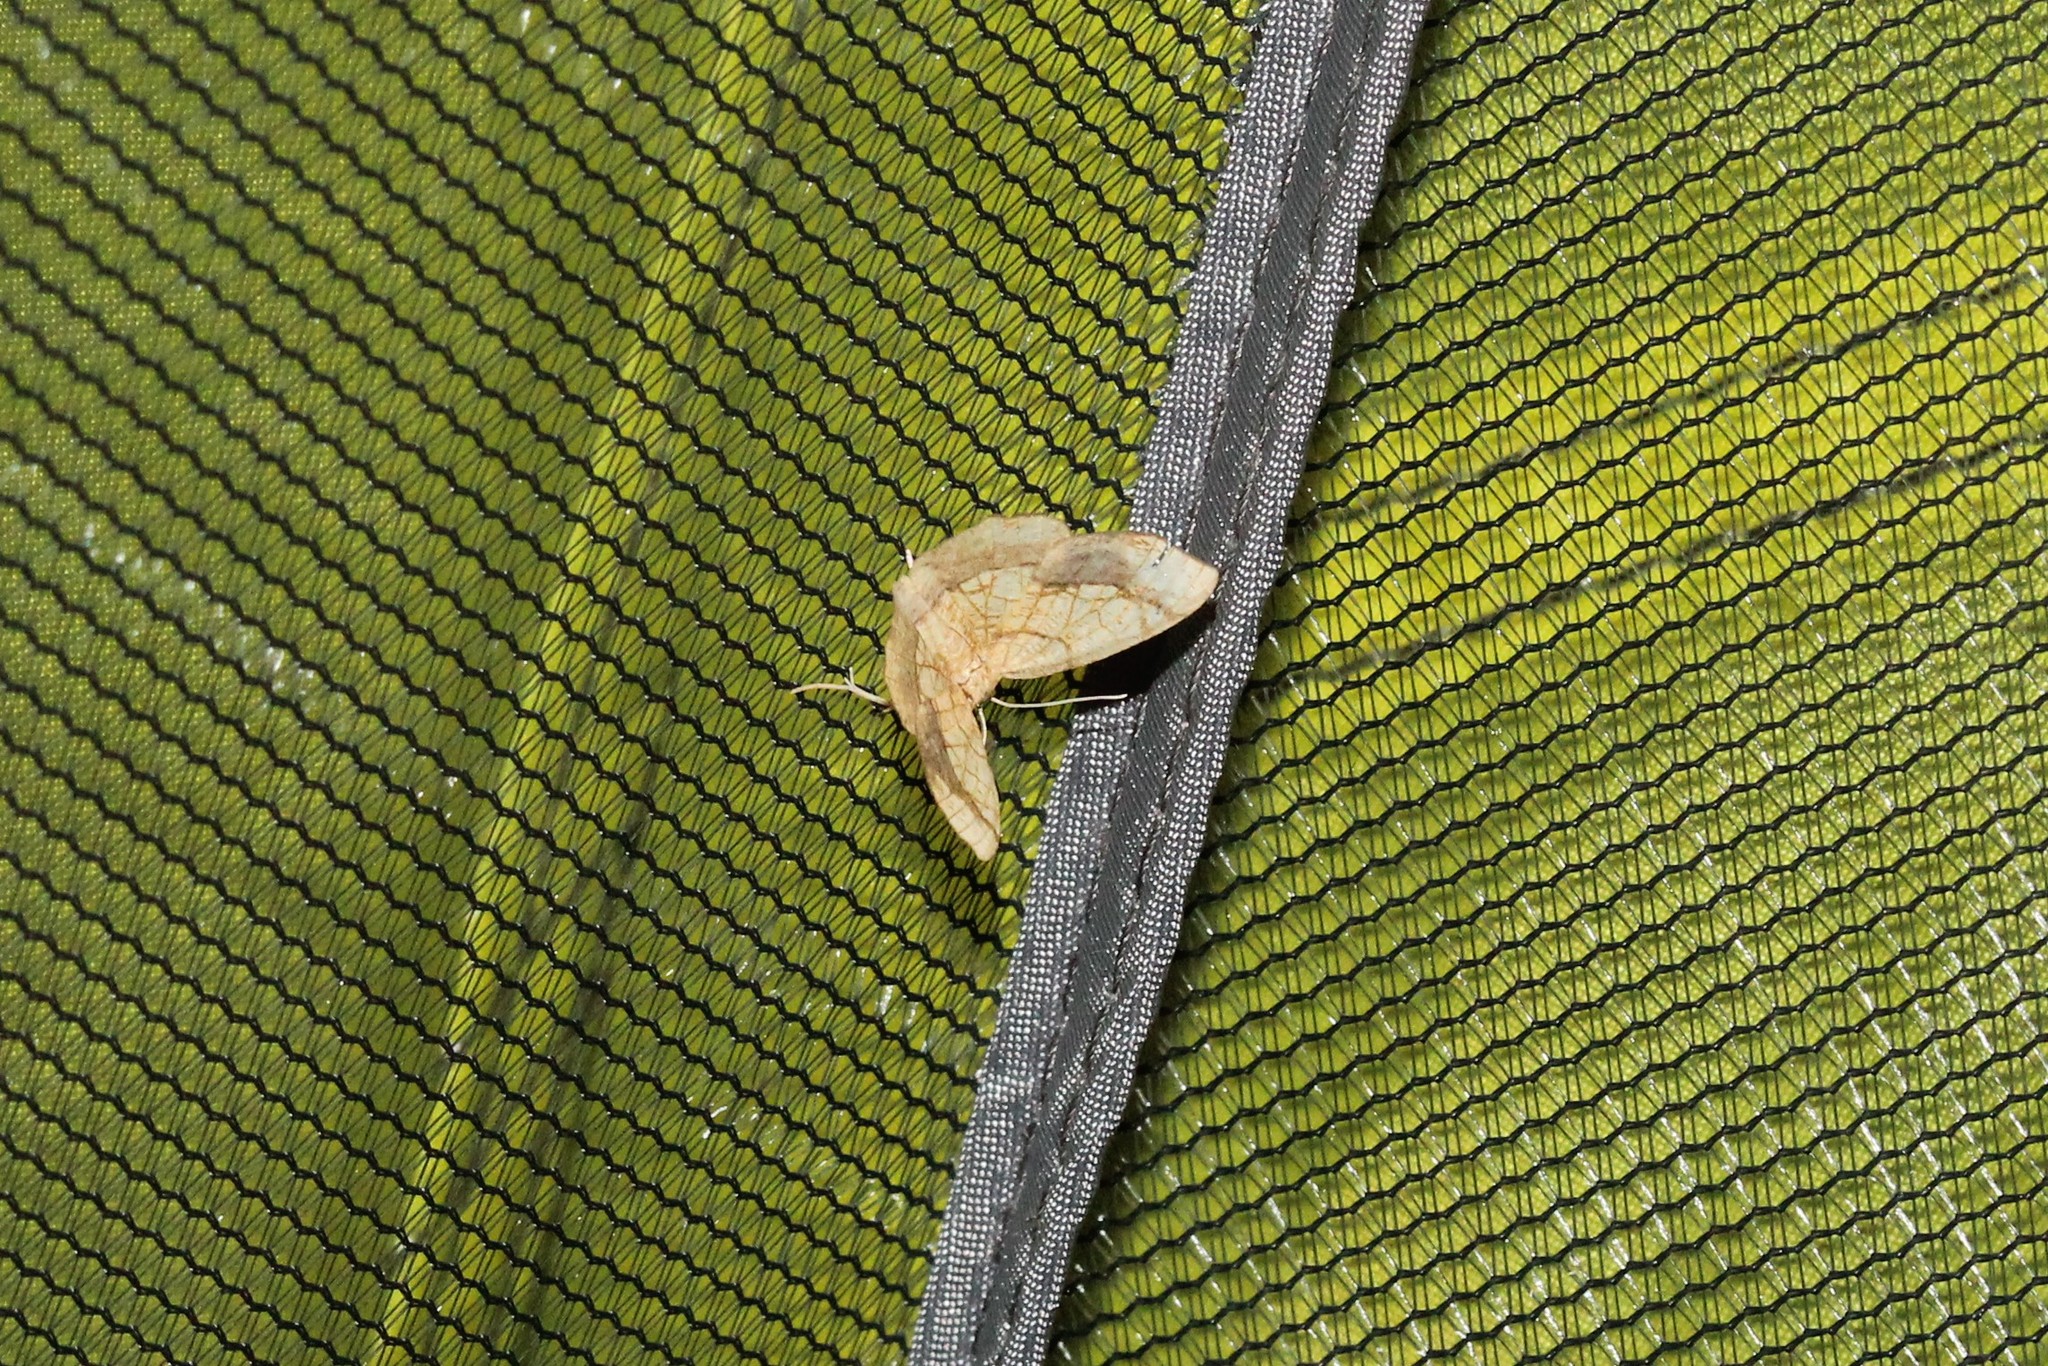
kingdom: Animalia
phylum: Arthropoda
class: Insecta
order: Lepidoptera
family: Geometridae
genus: Nematocampa
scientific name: Nematocampa resistaria
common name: Horned spanworm moth
